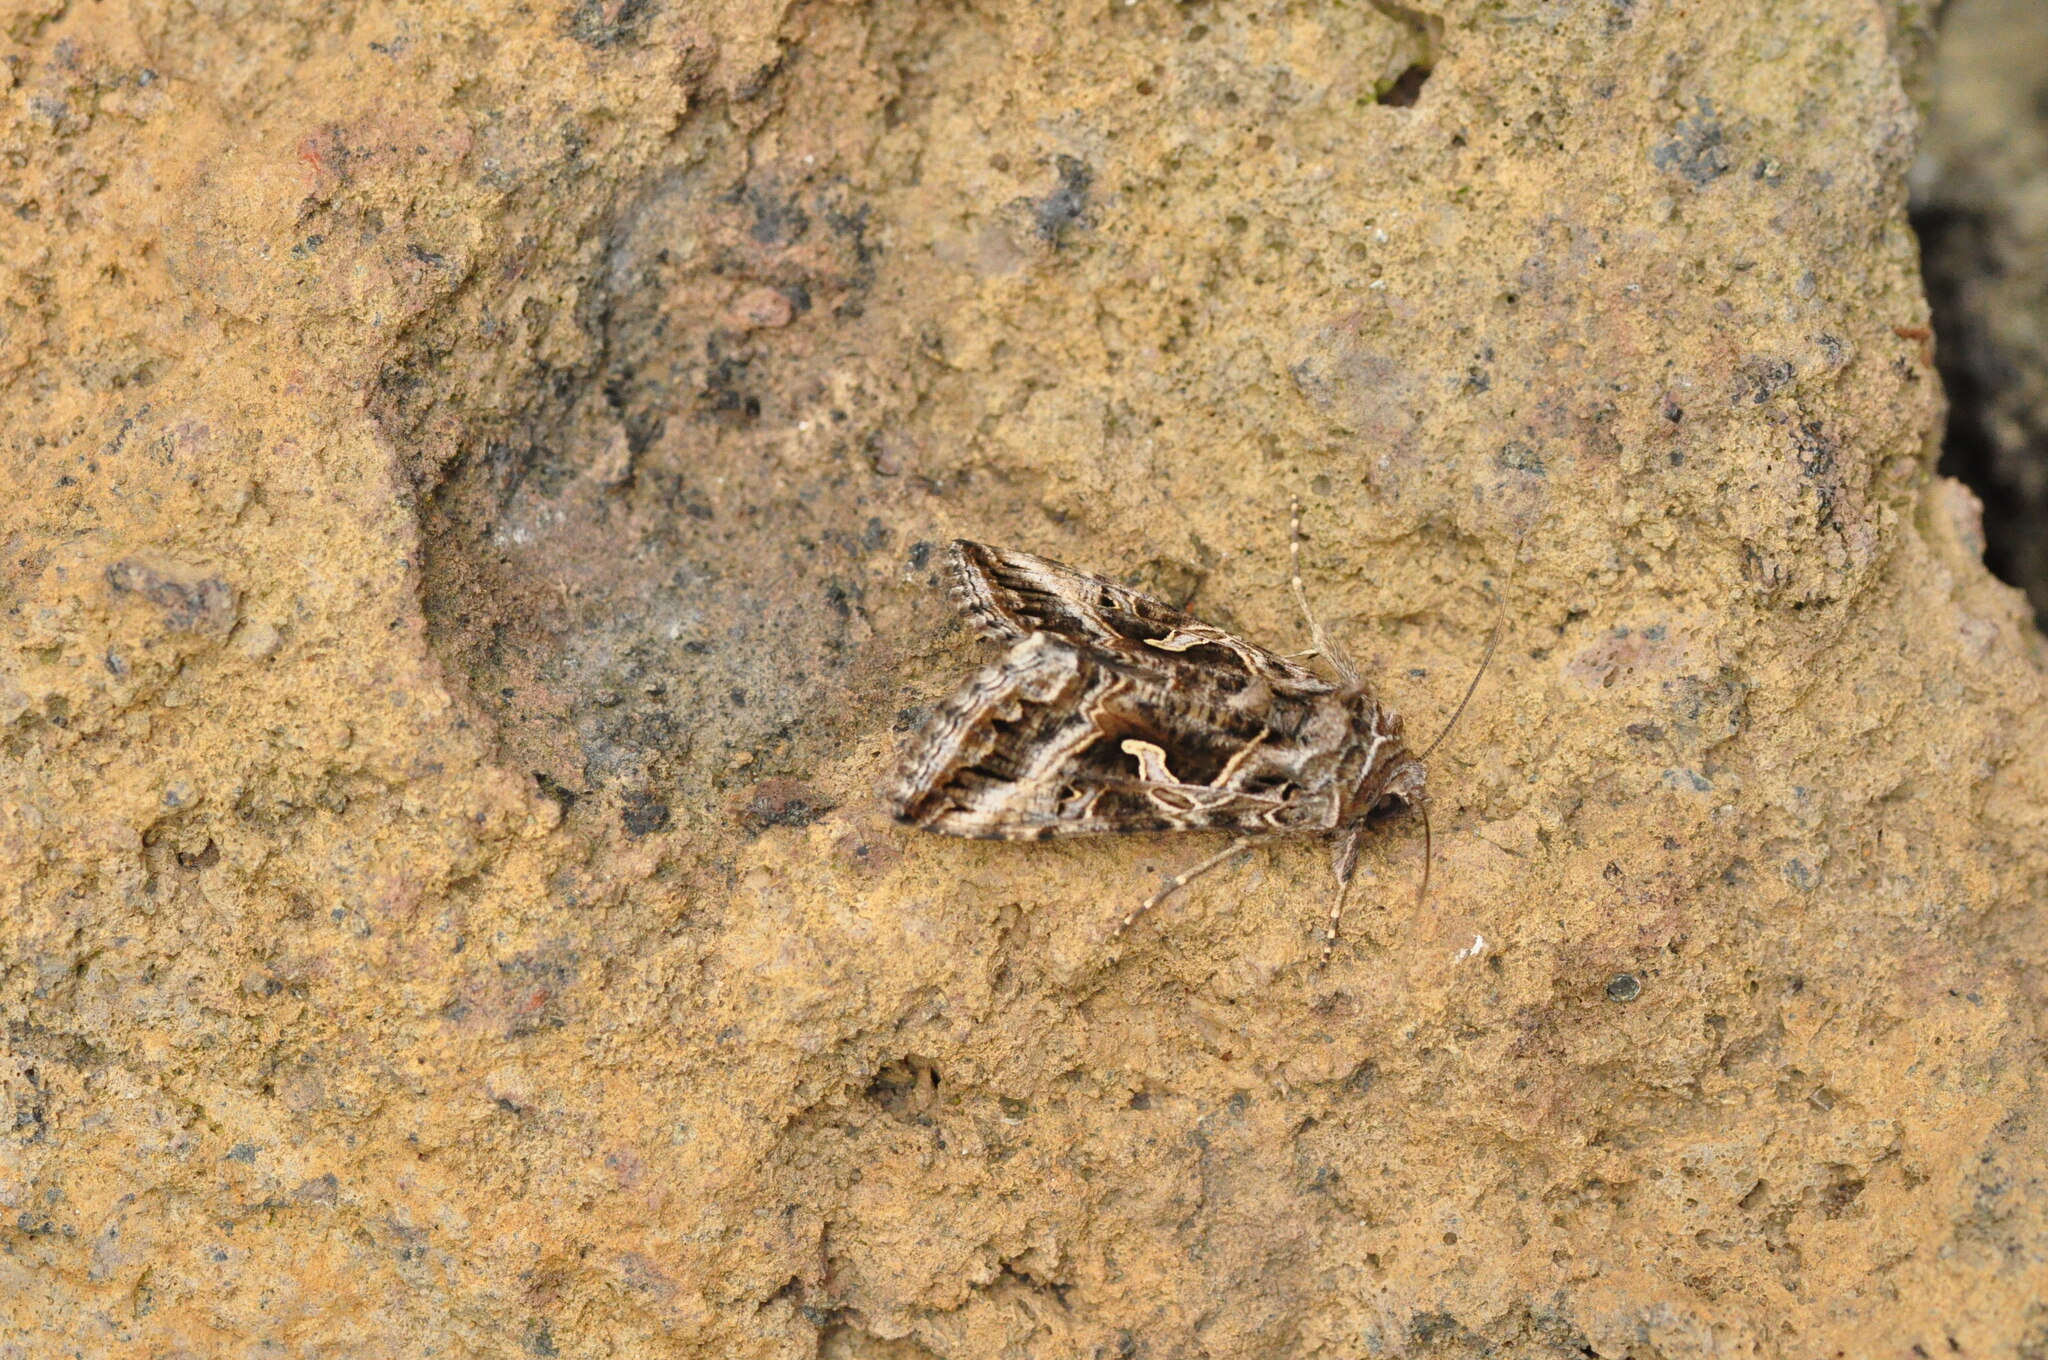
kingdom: Animalia
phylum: Arthropoda
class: Insecta
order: Lepidoptera
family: Noctuidae
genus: Cornutiplusia
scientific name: Cornutiplusia circumflexa
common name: Yorkshire y
